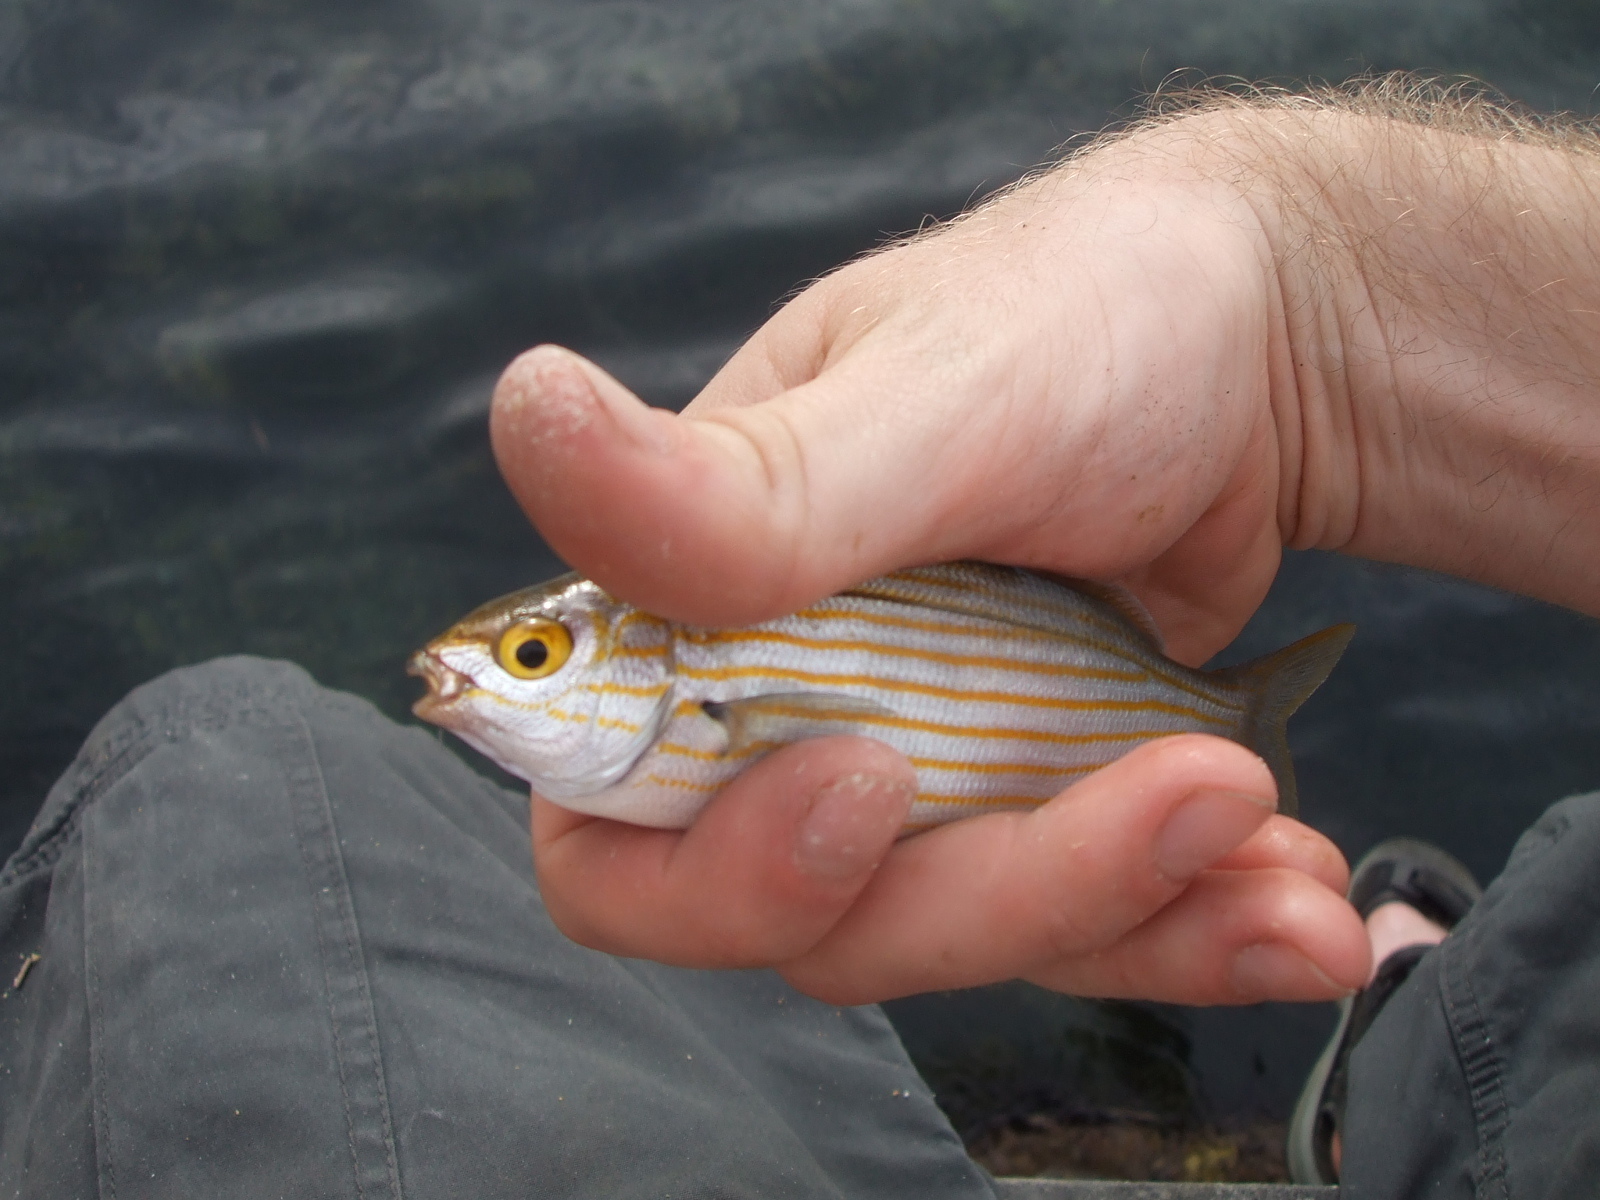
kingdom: Animalia
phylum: Chordata
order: Perciformes
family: Sparidae
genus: Sarpa
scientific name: Sarpa salpa
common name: Salema
